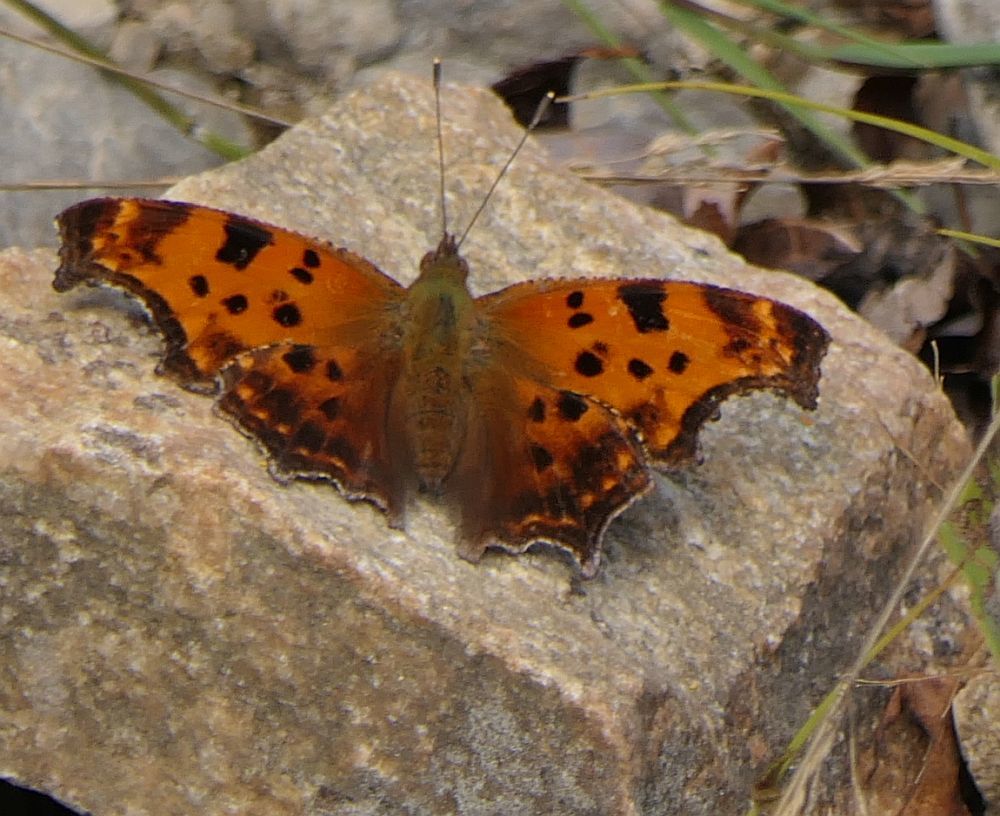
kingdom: Animalia
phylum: Arthropoda
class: Insecta
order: Lepidoptera
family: Nymphalidae
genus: Polygonia
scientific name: Polygonia comma
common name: Eastern comma
